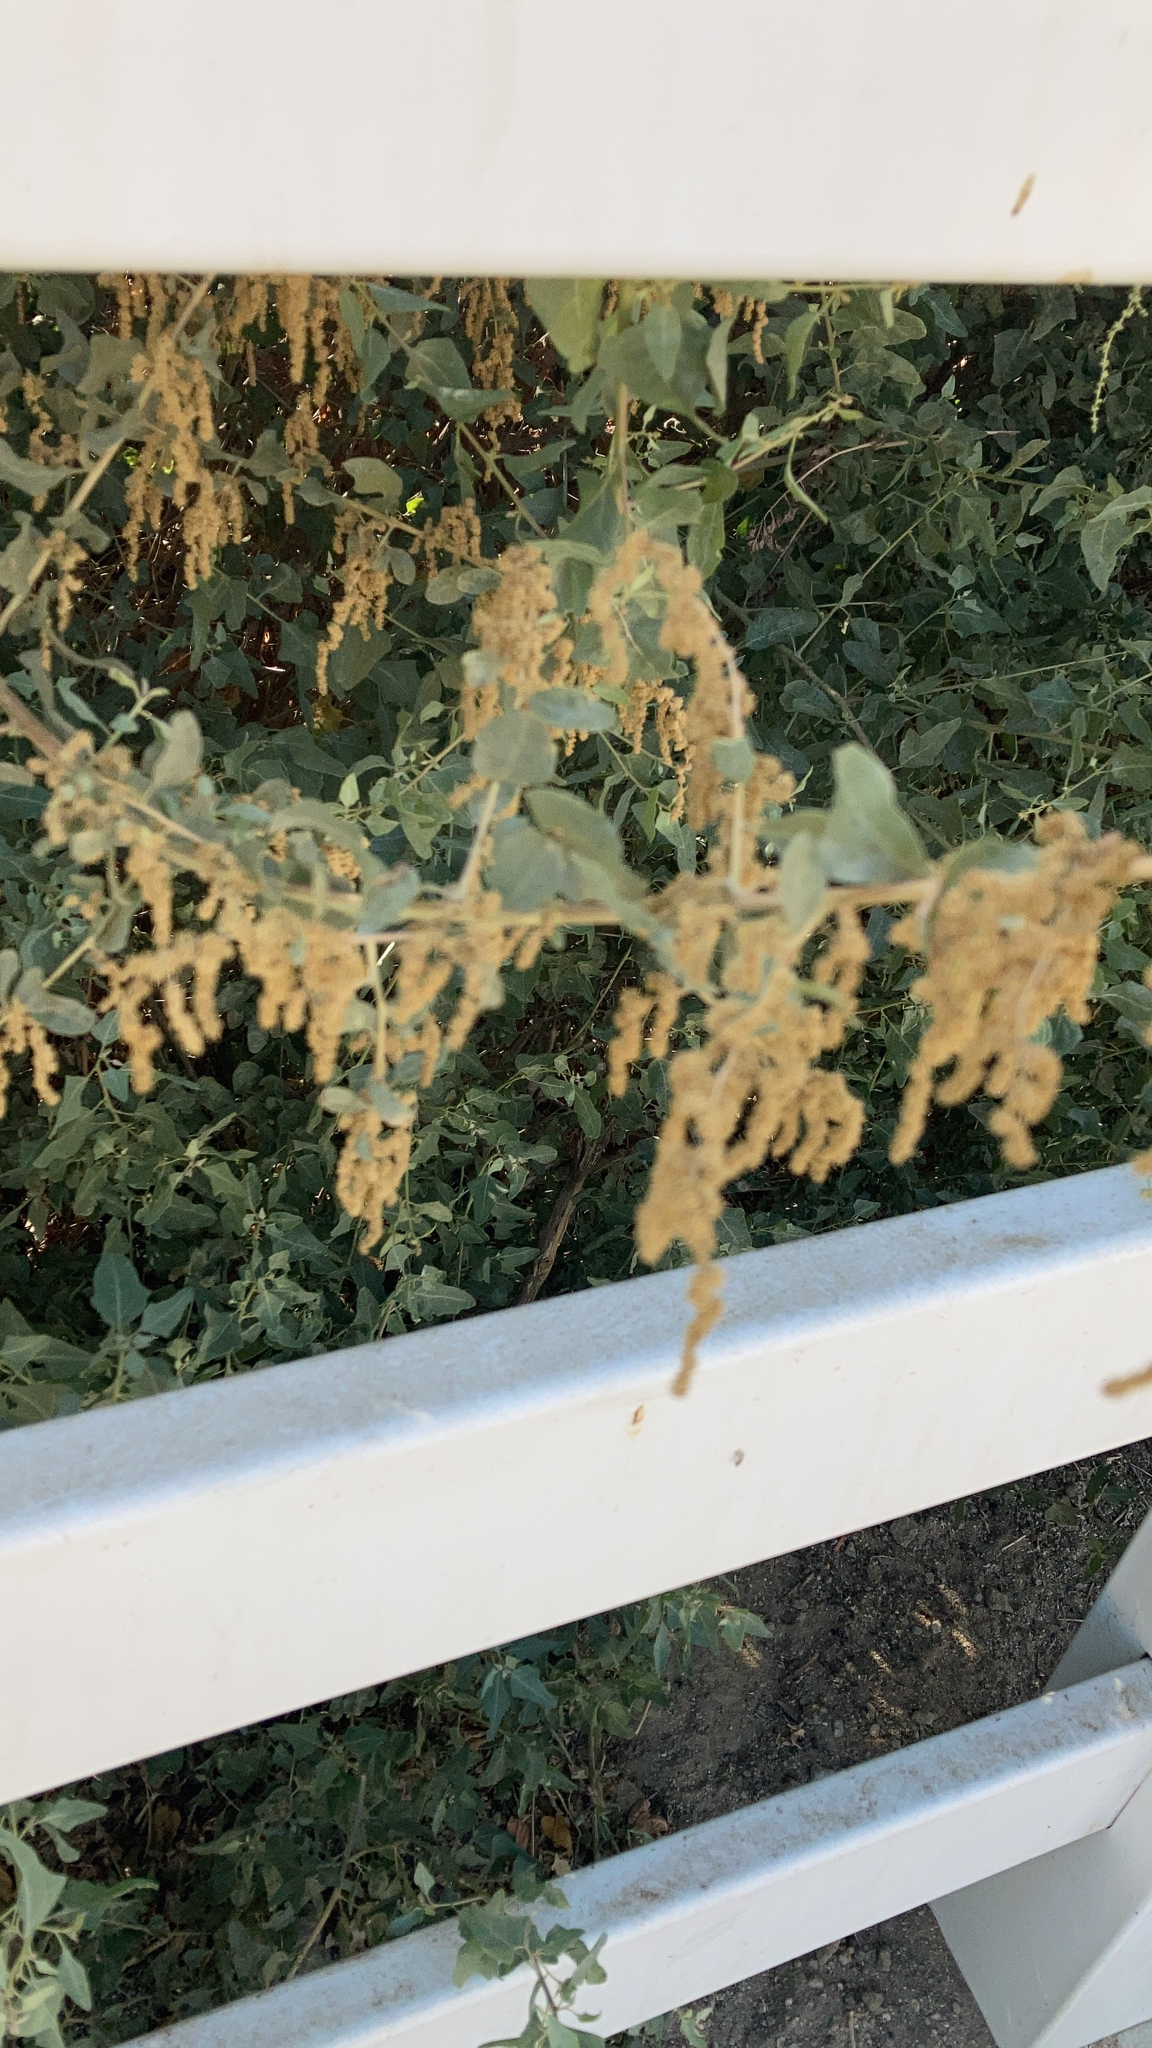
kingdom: Plantae
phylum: Tracheophyta
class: Magnoliopsida
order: Caryophyllales
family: Amaranthaceae
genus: Atriplex
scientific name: Atriplex lentiformis
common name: Big saltbush
